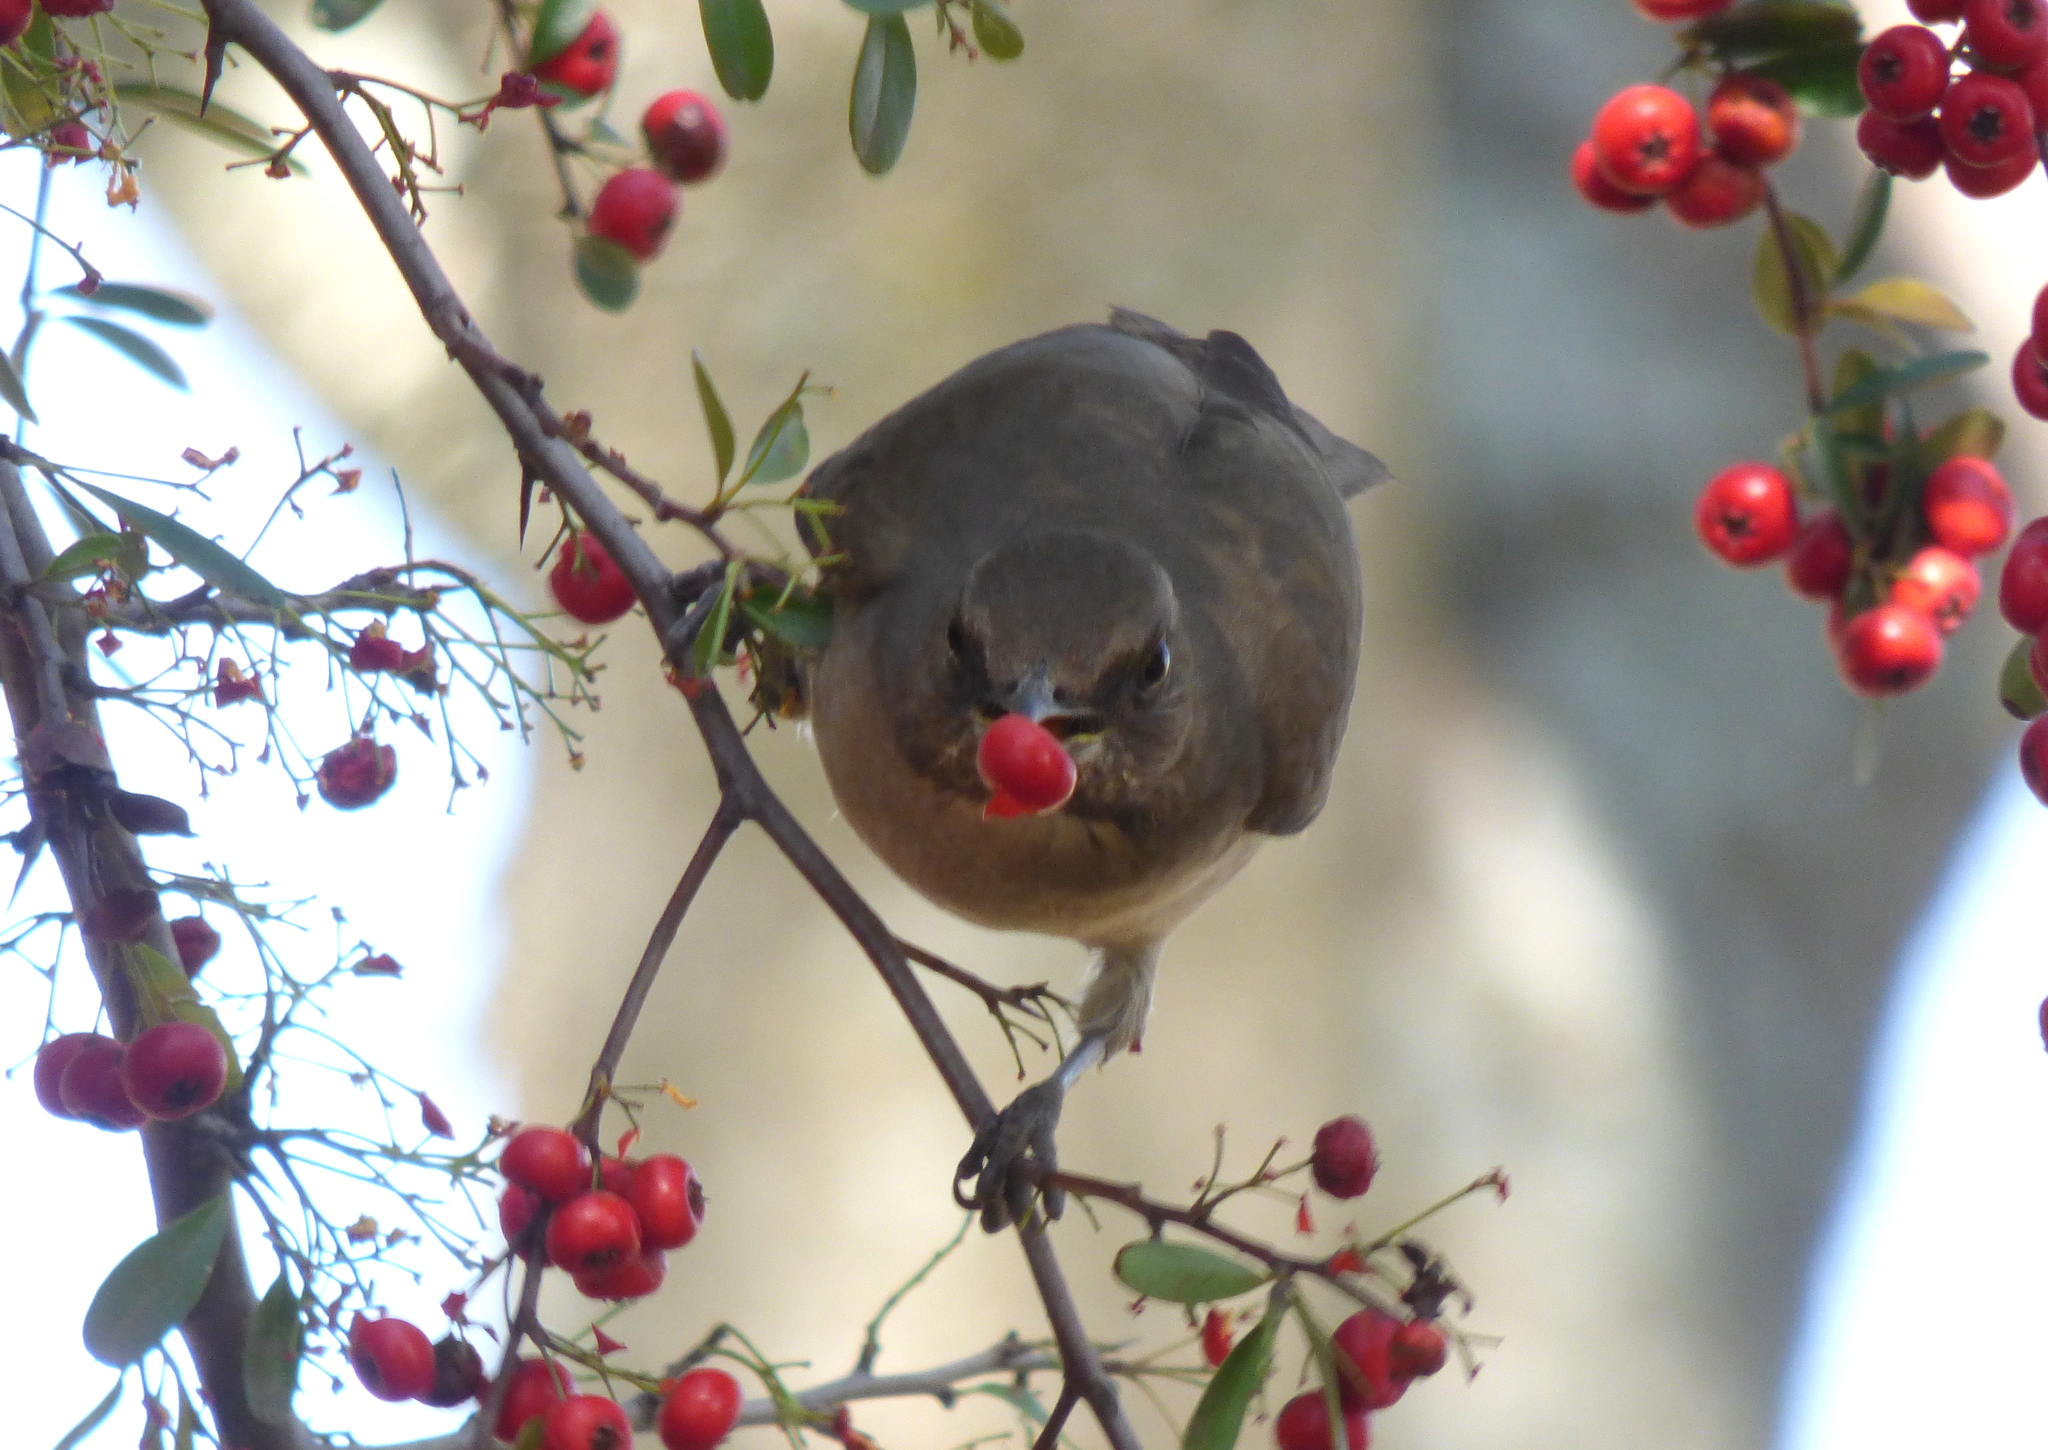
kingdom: Animalia
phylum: Chordata
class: Aves
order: Passeriformes
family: Turdidae
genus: Turdus
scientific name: Turdus amaurochalinus
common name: Creamy-bellied thrush
